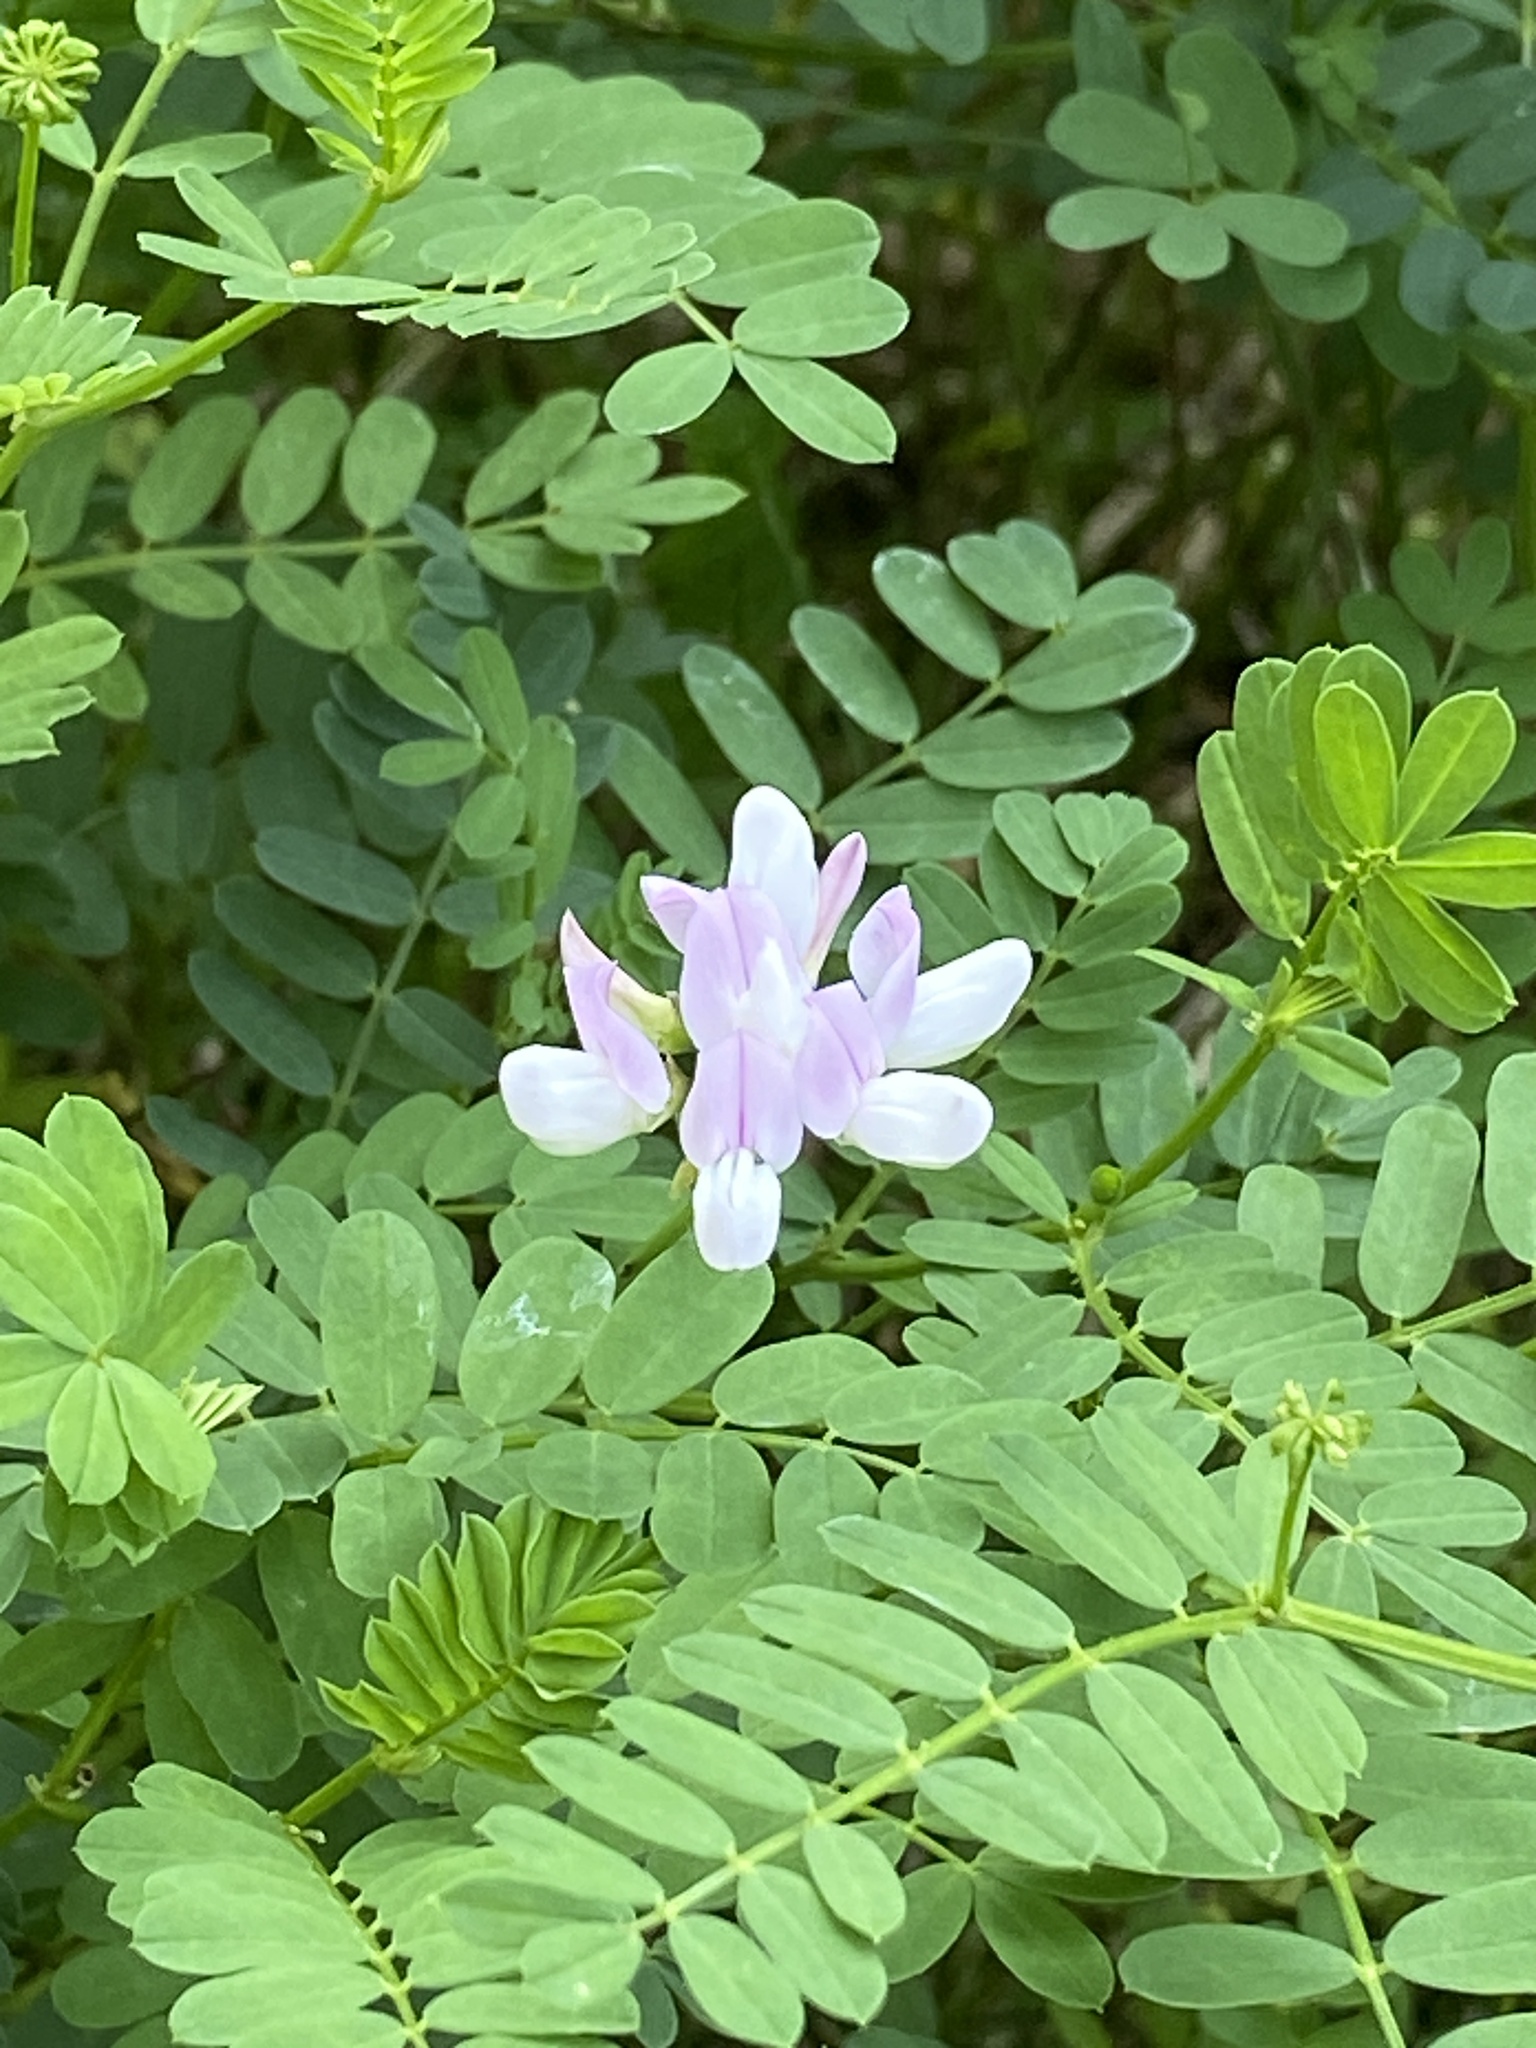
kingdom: Plantae
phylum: Tracheophyta
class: Magnoliopsida
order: Fabales
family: Fabaceae
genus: Coronilla
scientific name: Coronilla varia
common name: Crownvetch
